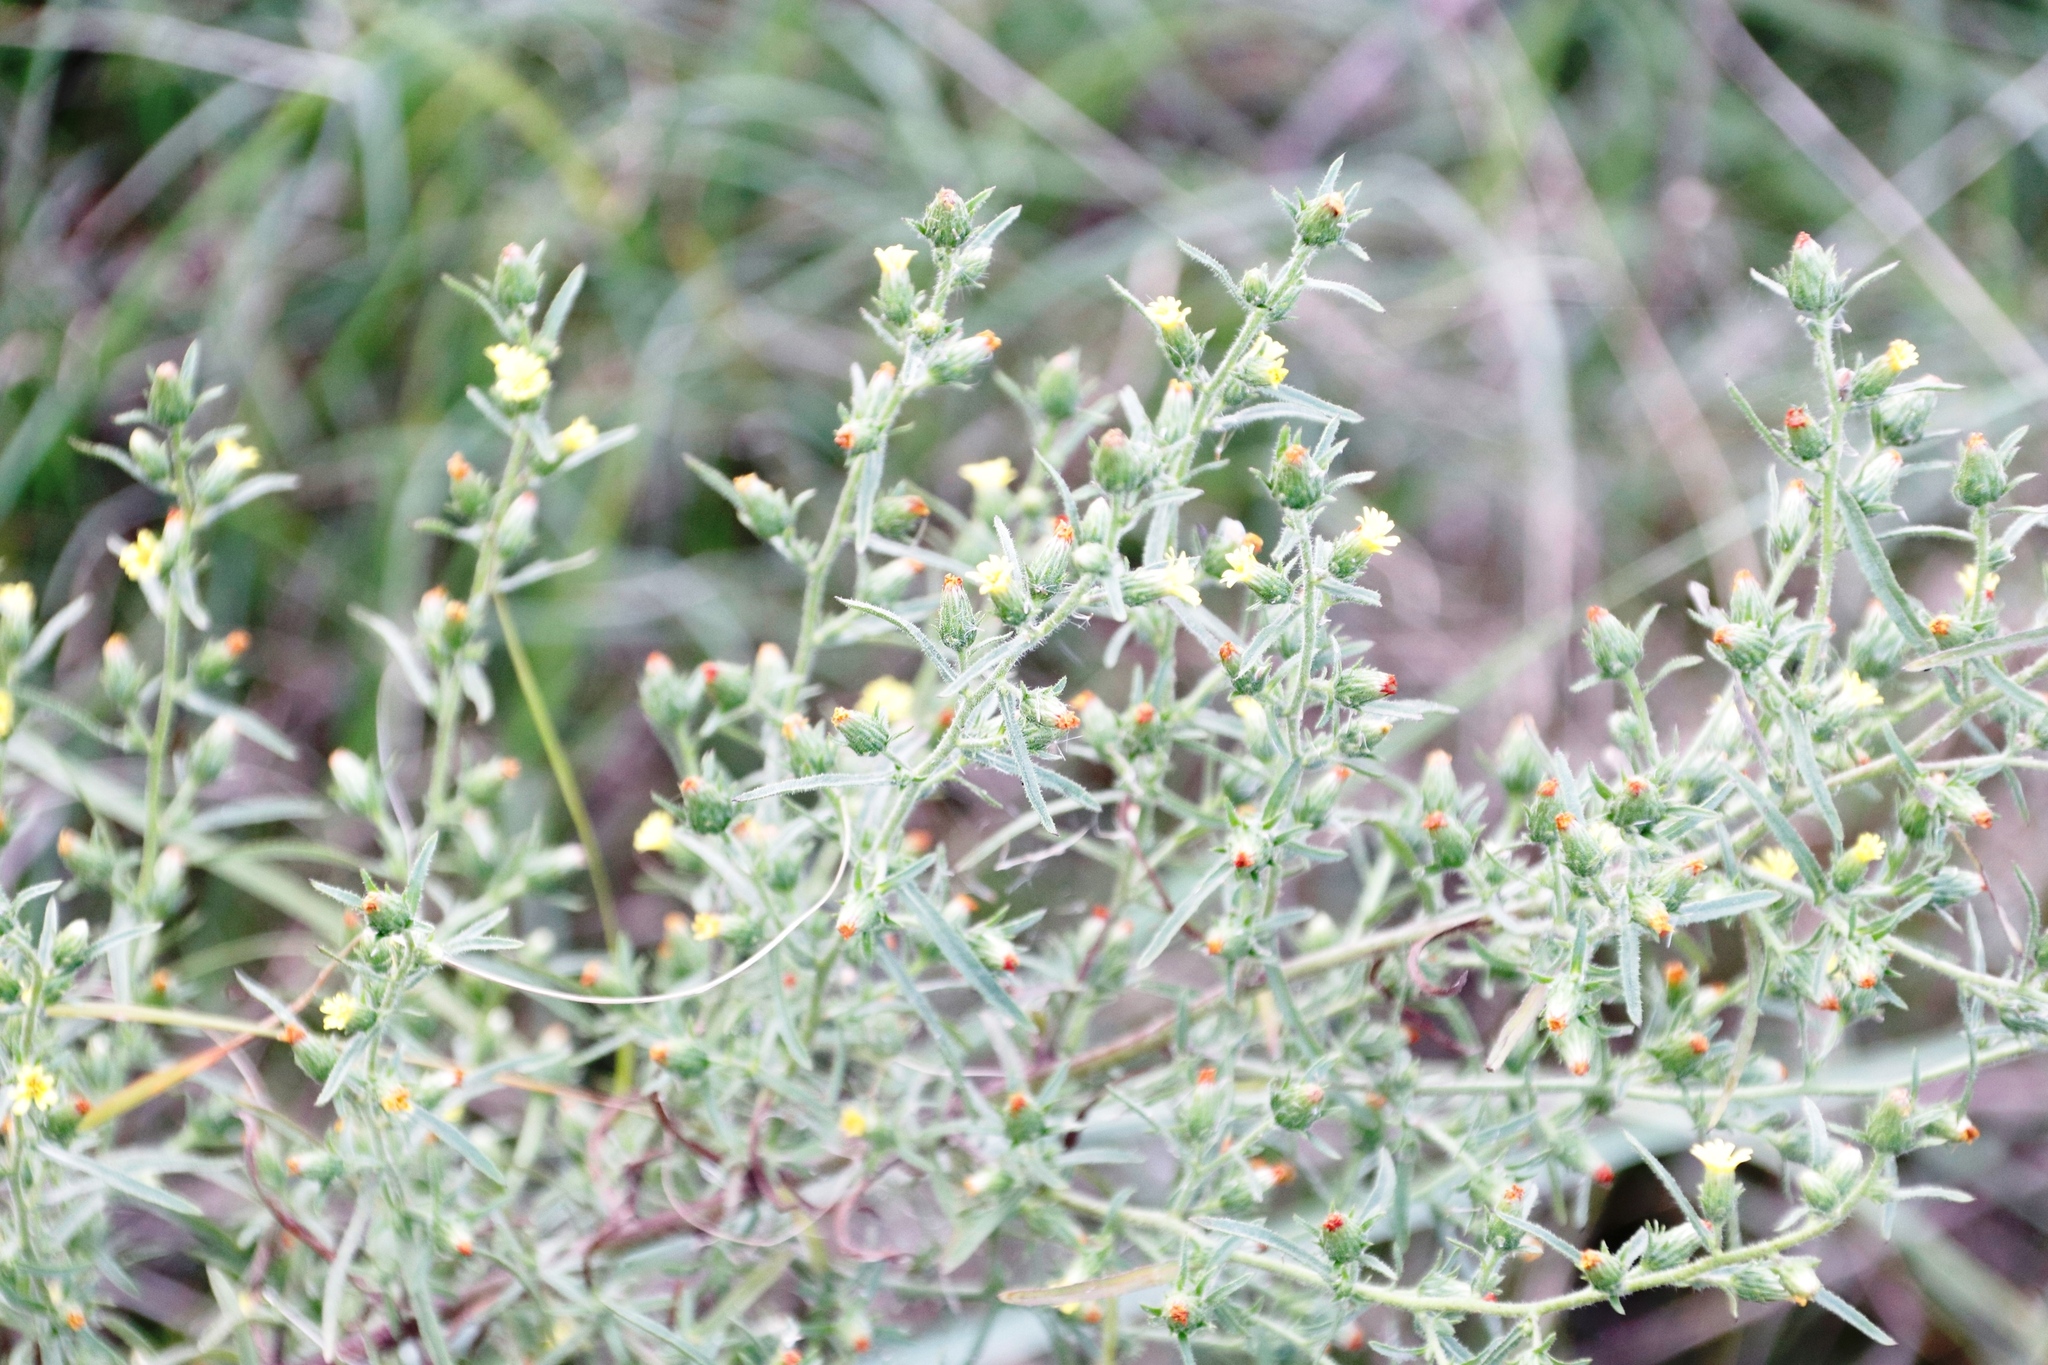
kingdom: Plantae
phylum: Tracheophyta
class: Magnoliopsida
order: Asterales
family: Asteraceae
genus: Dittrichia
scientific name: Dittrichia graveolens
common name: Stinking fleabane
